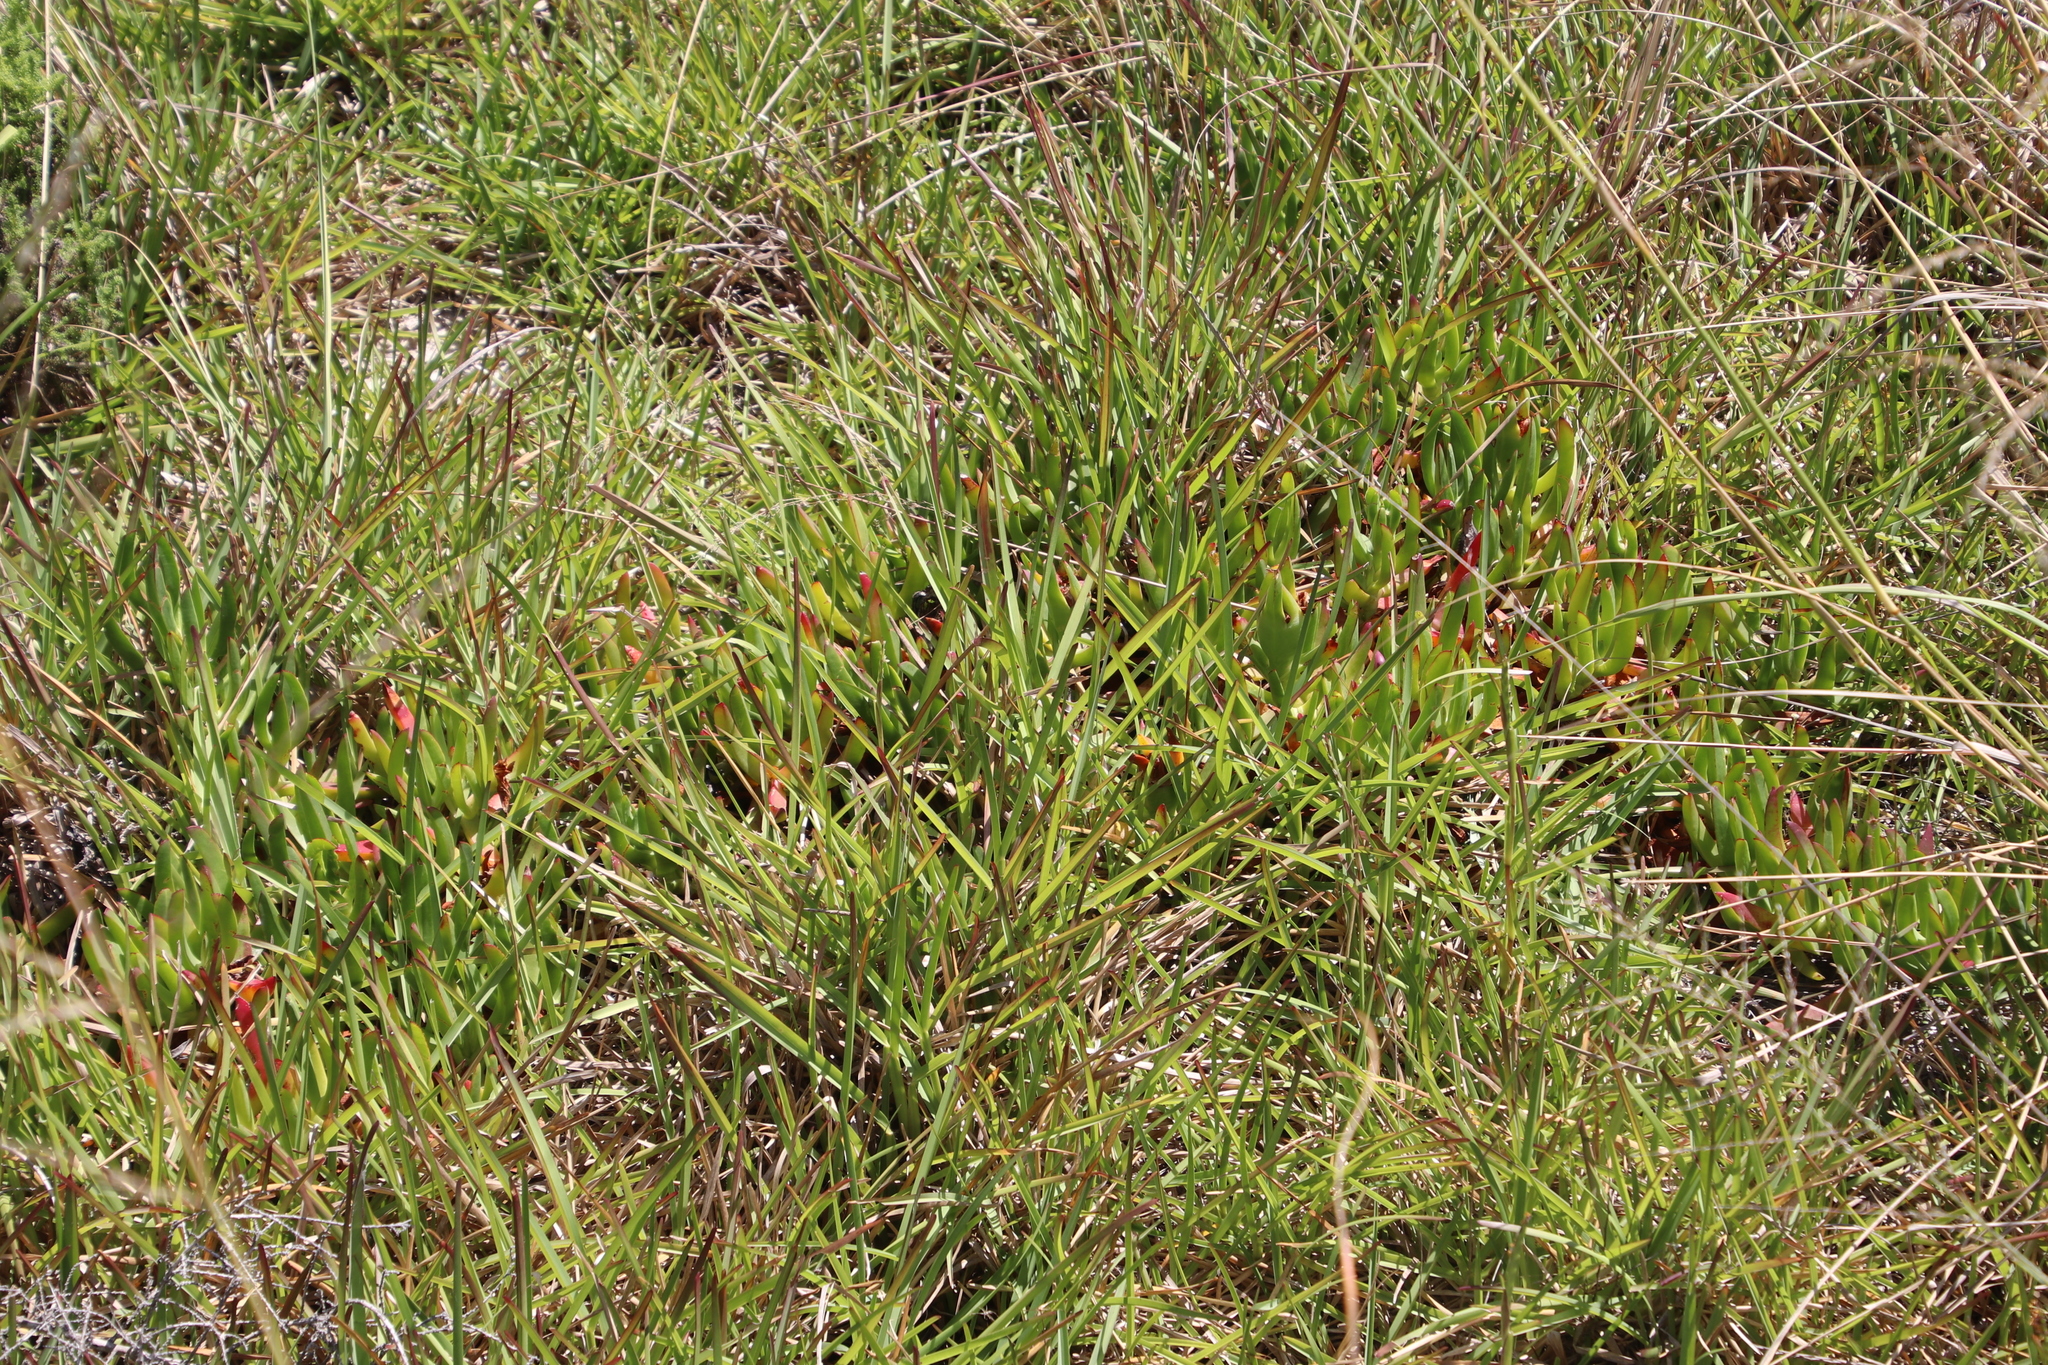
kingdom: Plantae
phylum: Tracheophyta
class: Liliopsida
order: Poales
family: Poaceae
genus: Stenotaphrum
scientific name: Stenotaphrum secundatum
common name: St. augustine grass
